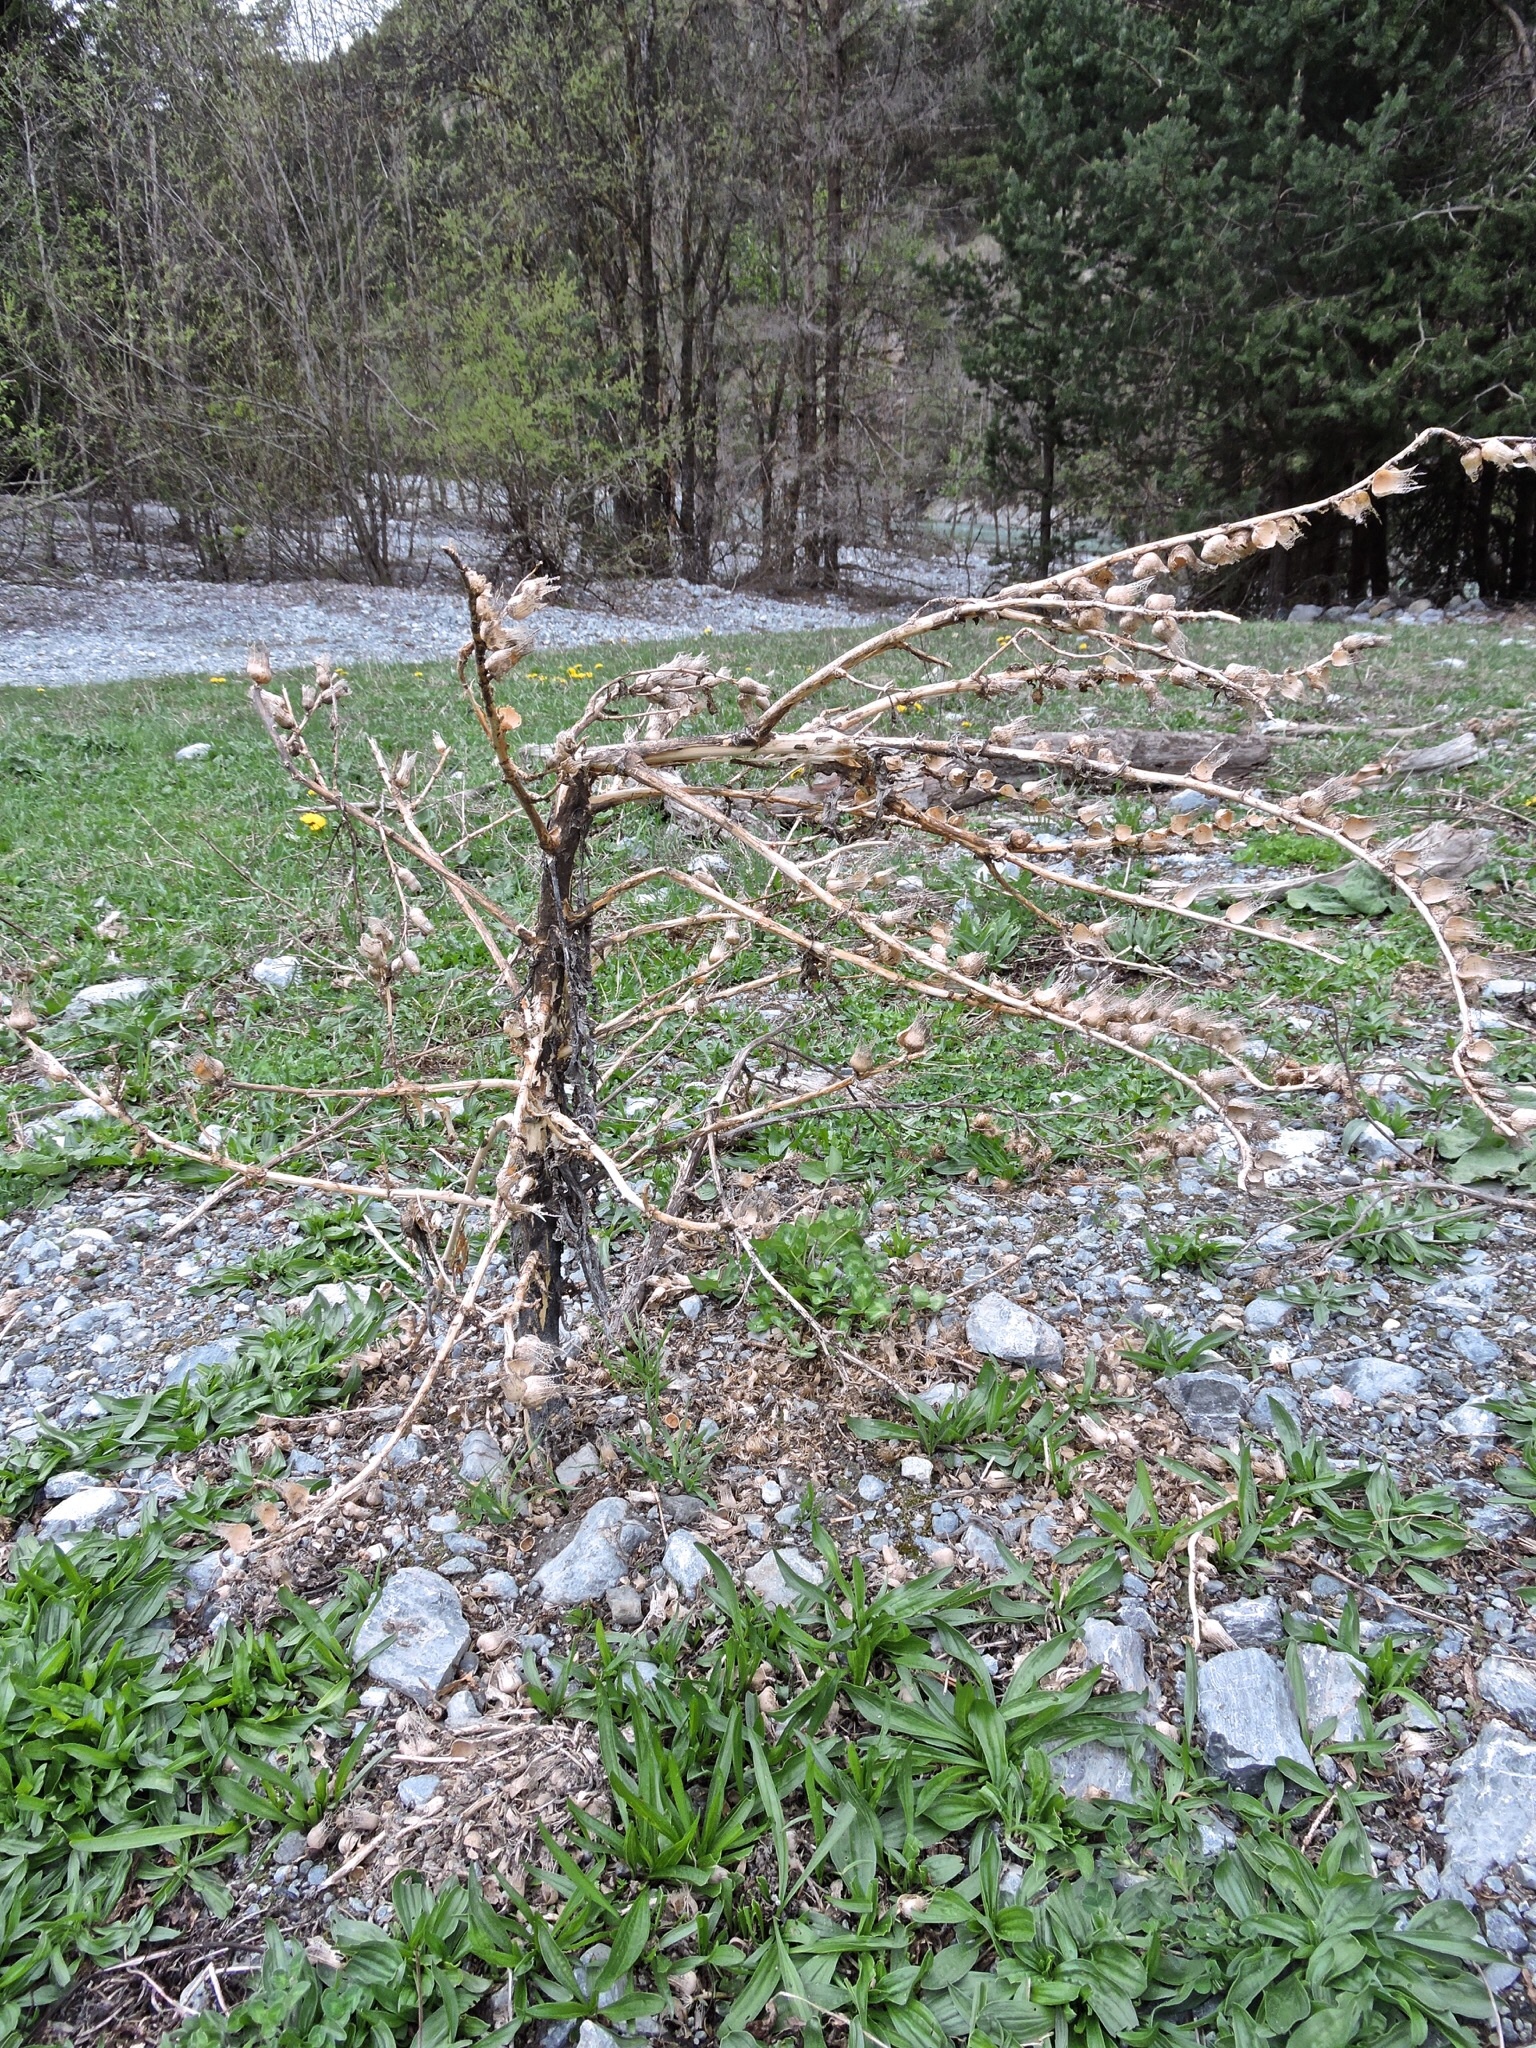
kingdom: Plantae
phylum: Tracheophyta
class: Magnoliopsida
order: Solanales
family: Solanaceae
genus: Hyoscyamus
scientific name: Hyoscyamus niger
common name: Henbane
